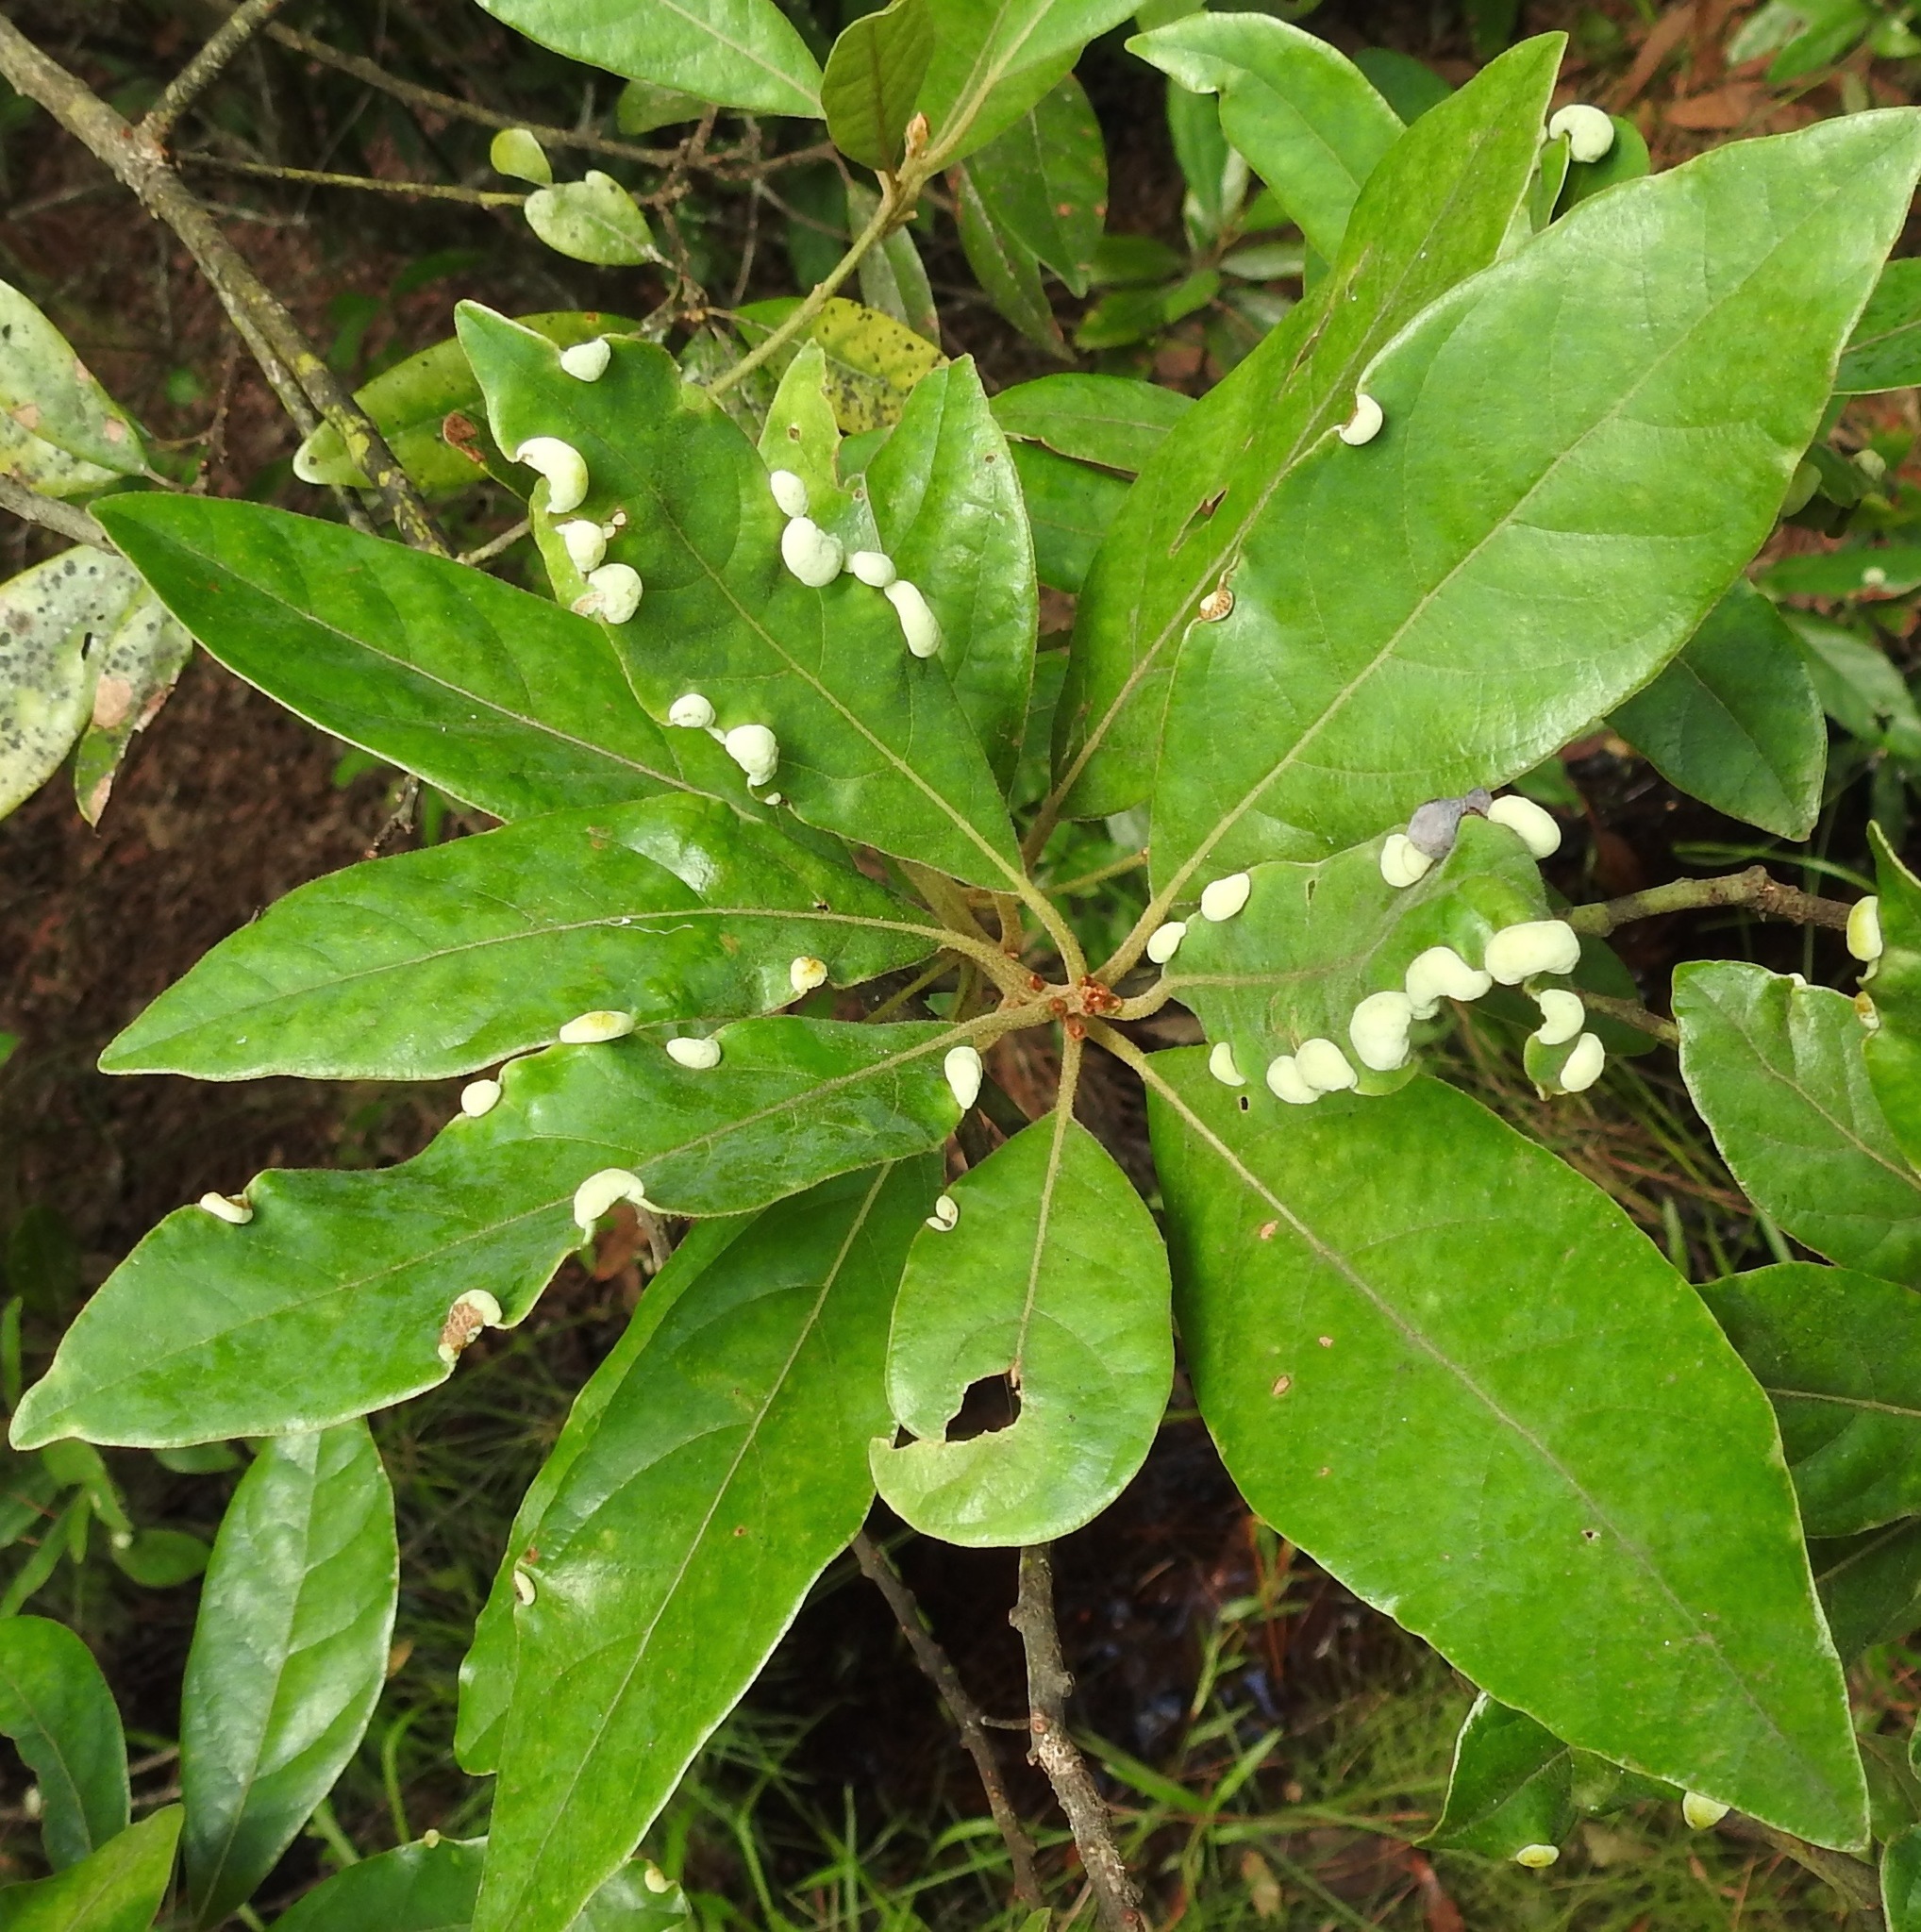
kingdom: Animalia
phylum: Arthropoda
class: Insecta
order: Hemiptera
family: Triozidae
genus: Trioza
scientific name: Trioza magnoliae
